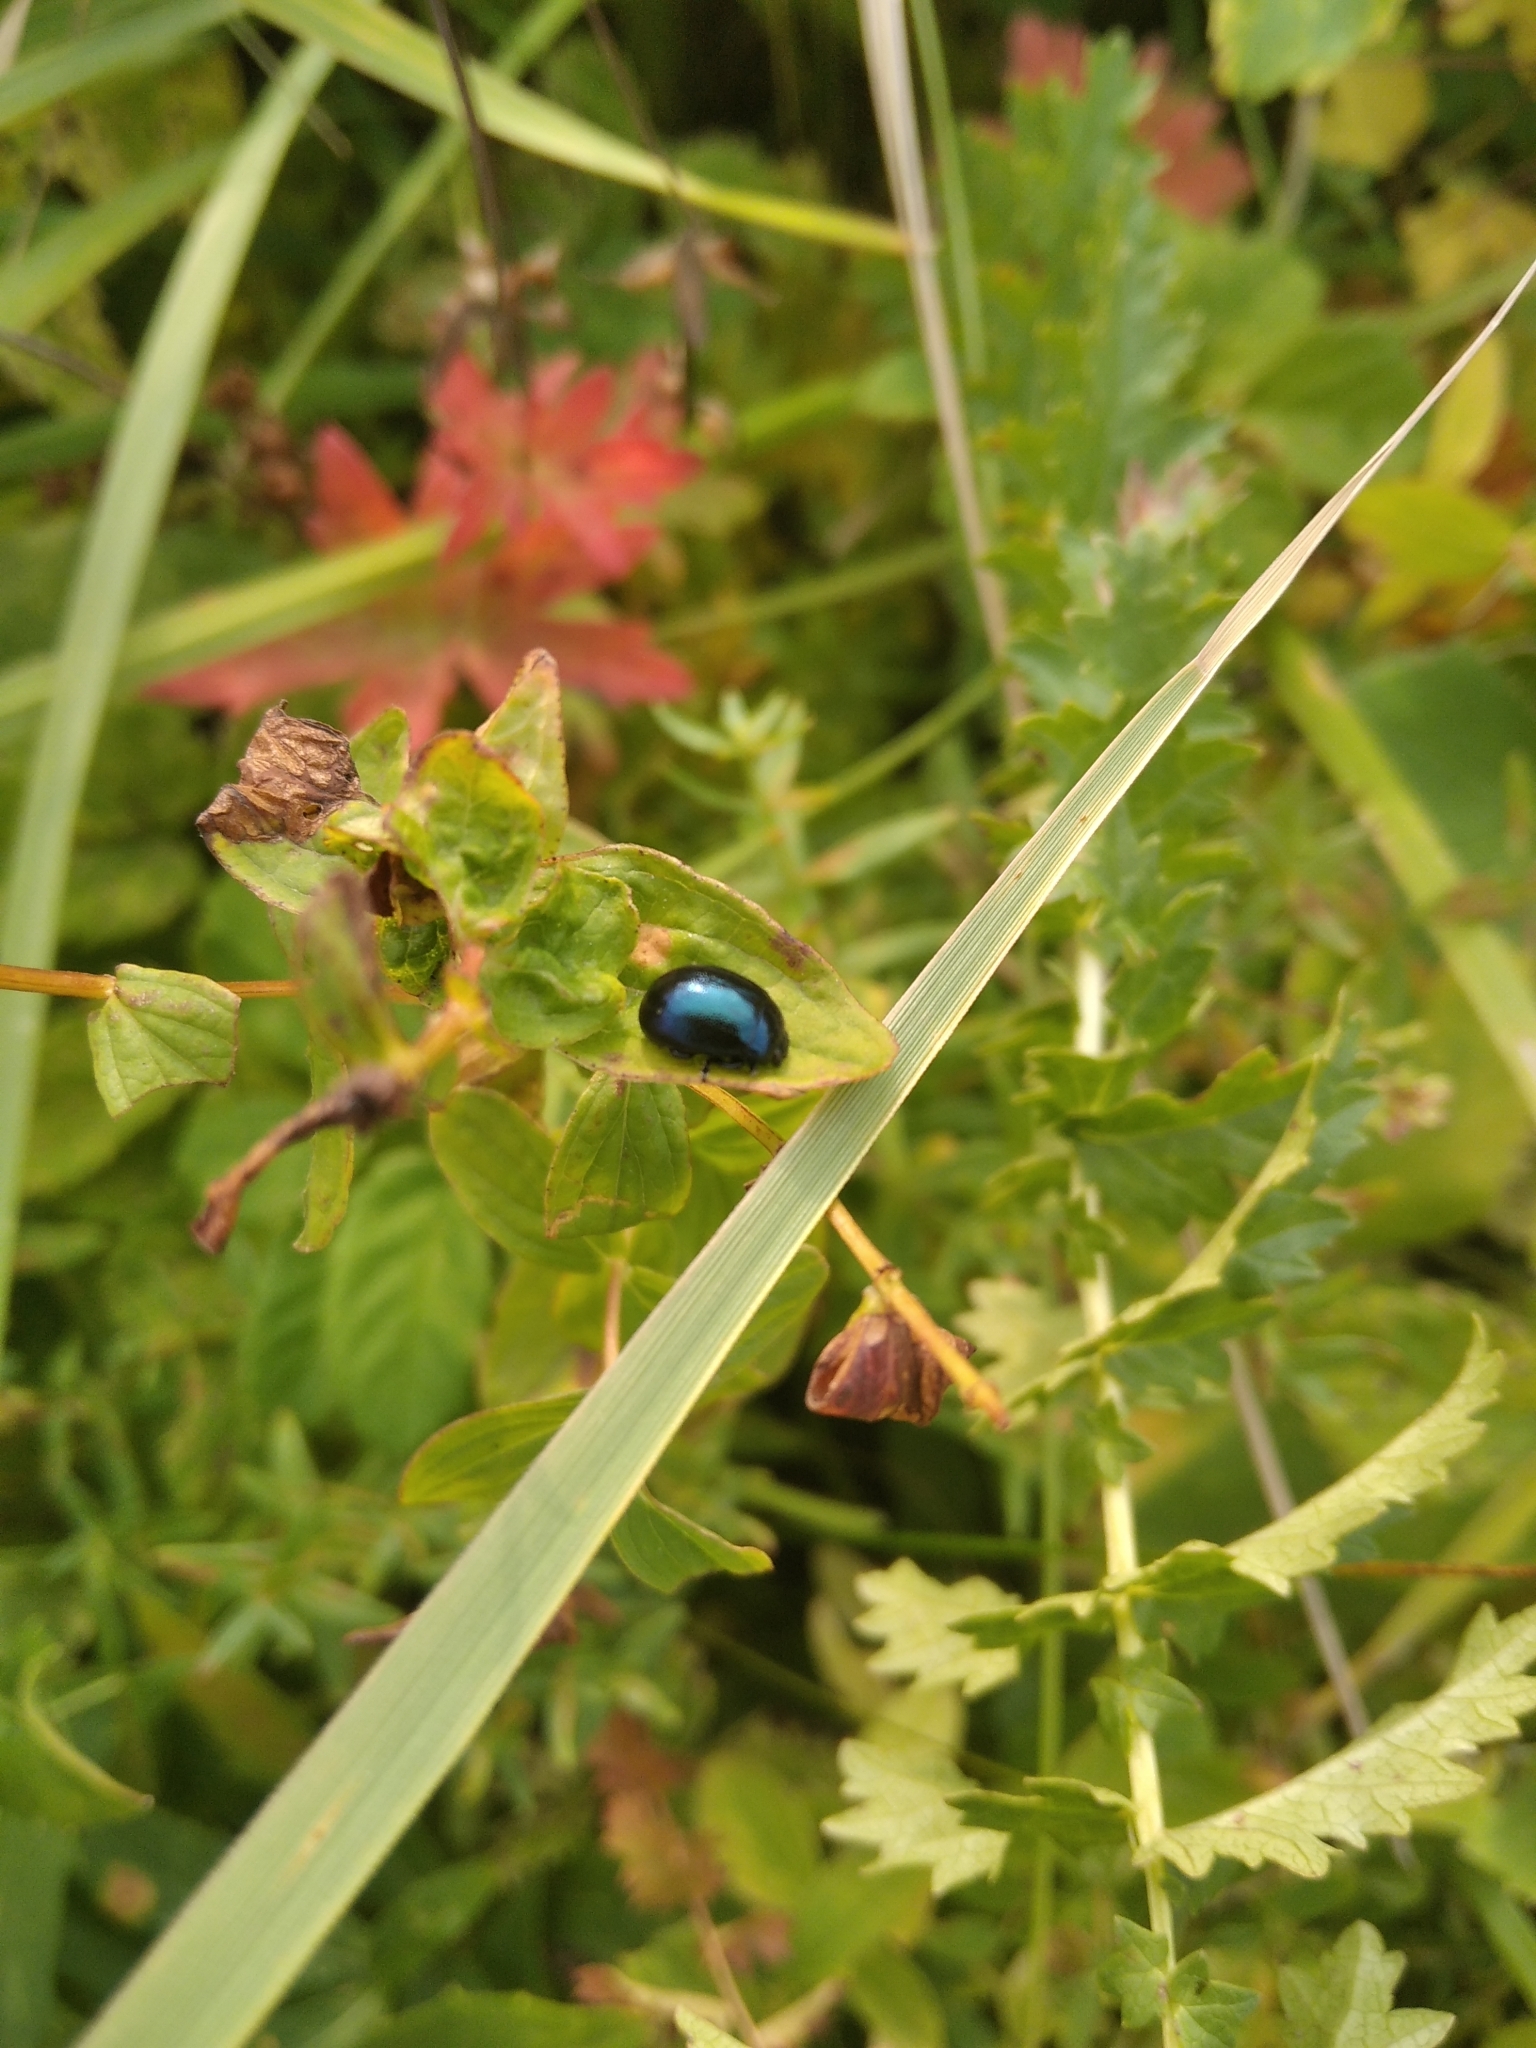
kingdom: Animalia
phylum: Arthropoda
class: Insecta
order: Coleoptera
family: Chrysomelidae
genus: Chrysolina
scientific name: Chrysolina varians
